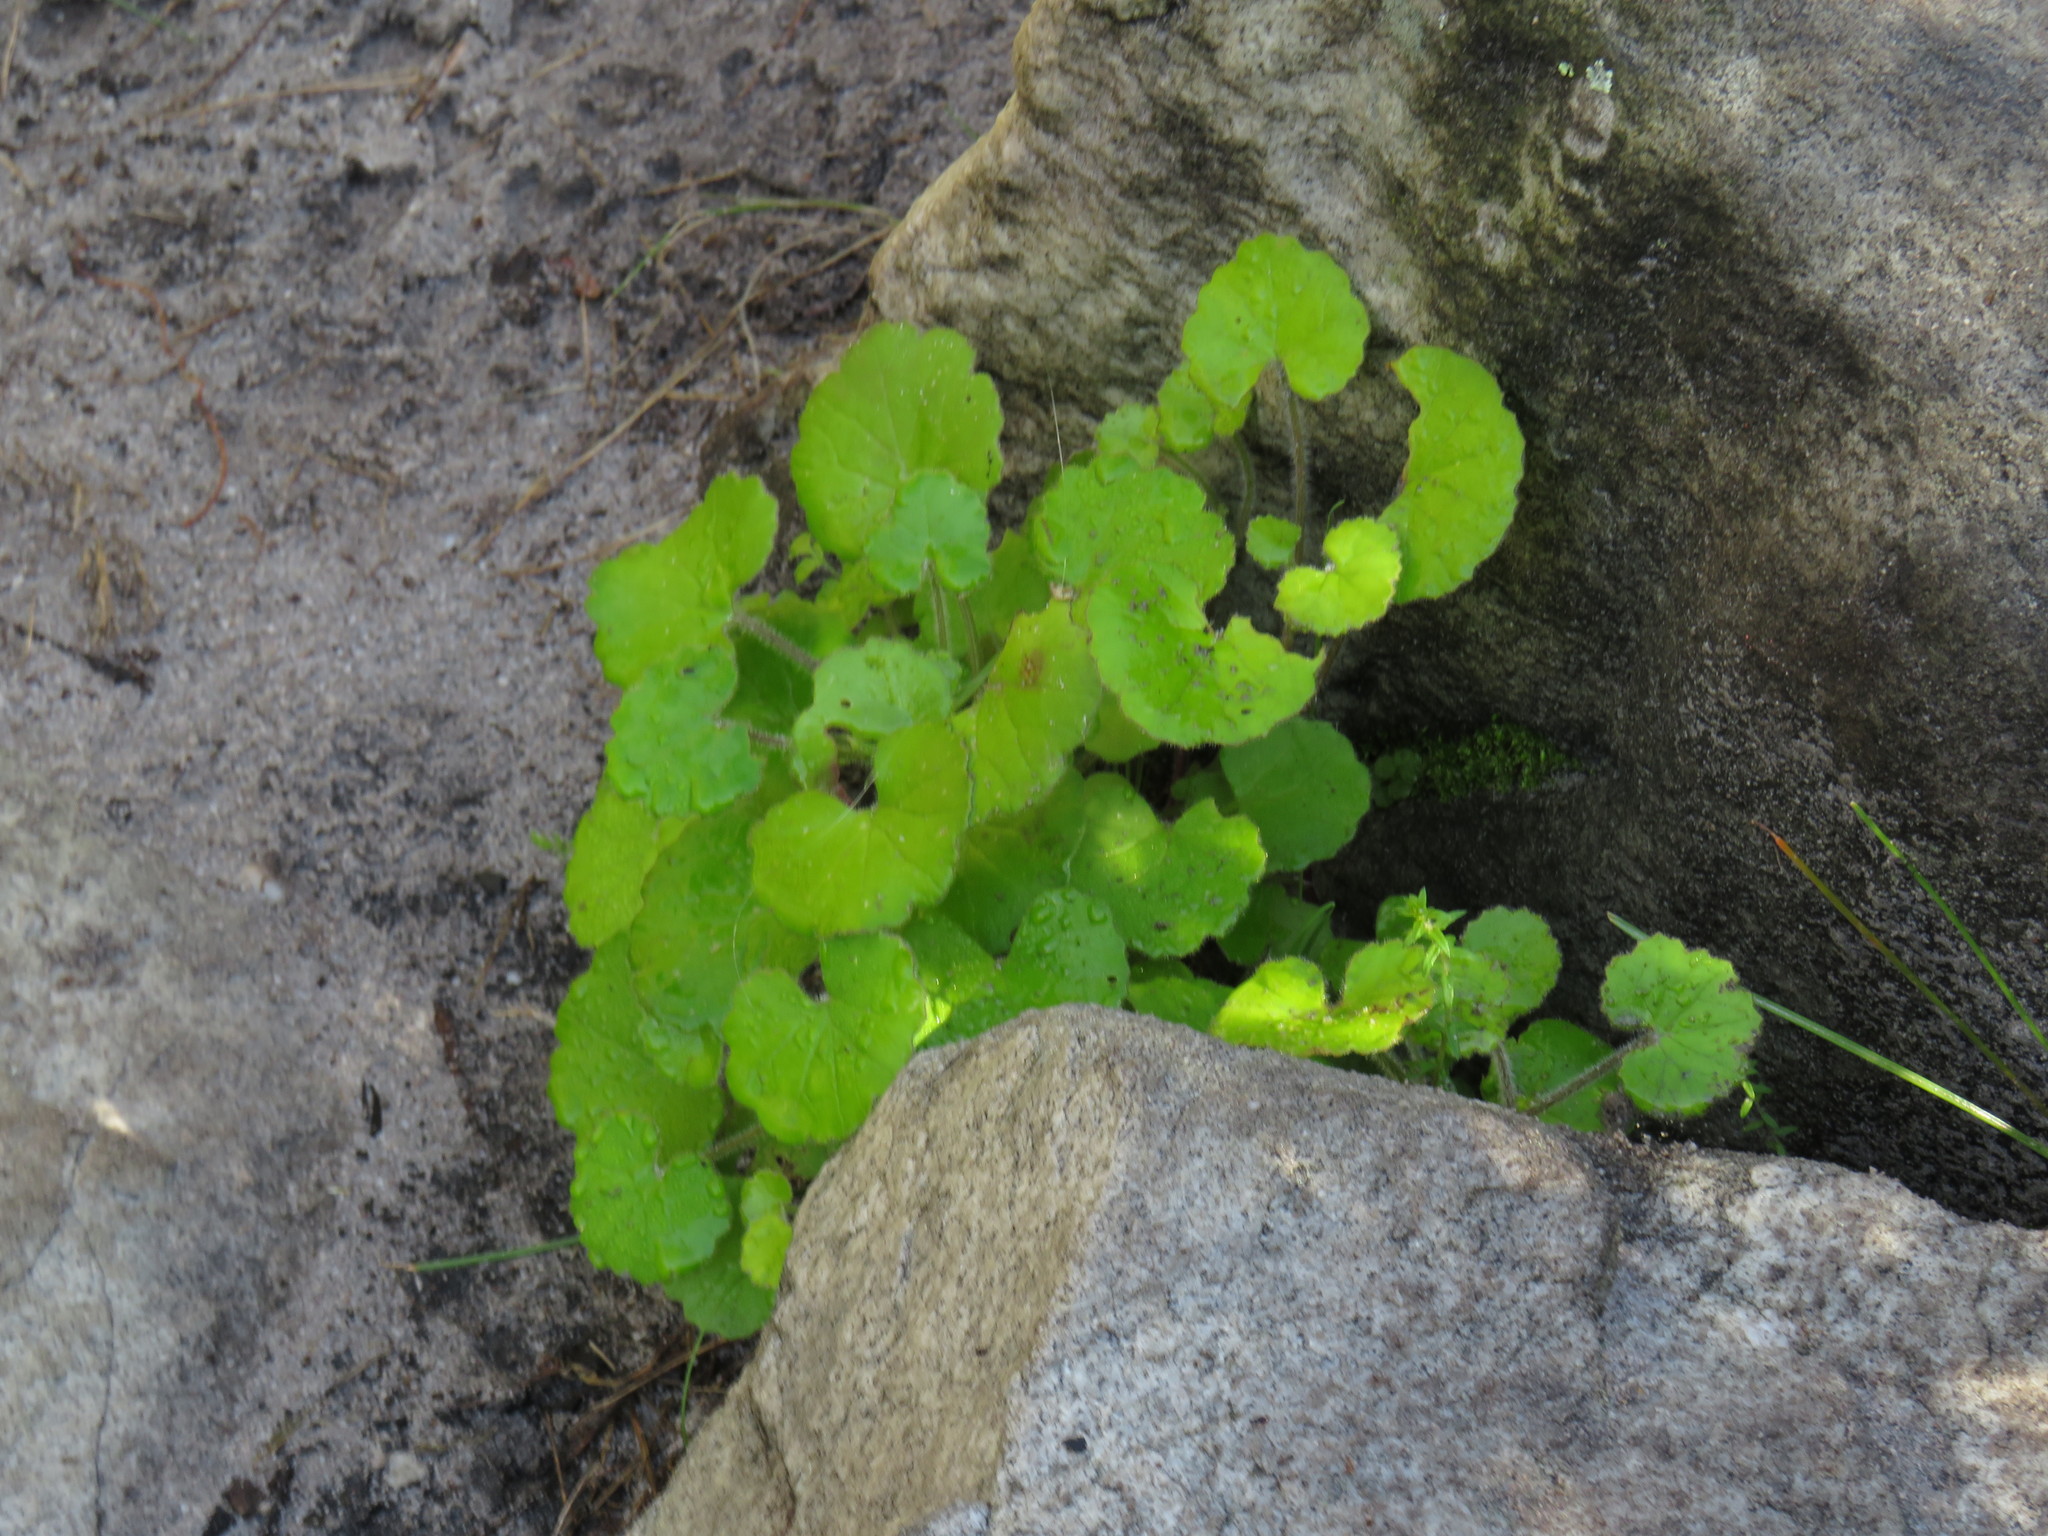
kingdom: Plantae
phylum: Tracheophyta
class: Magnoliopsida
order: Asterales
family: Asteraceae
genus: Cineraria
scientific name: Cineraria geifolia
